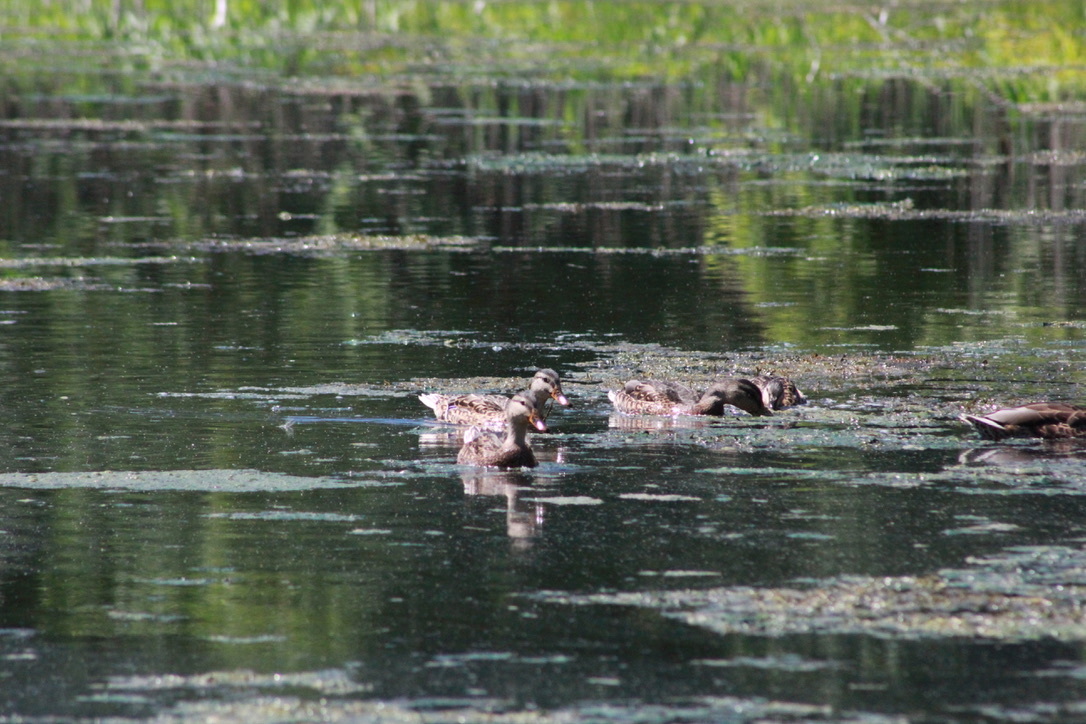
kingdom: Animalia
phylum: Chordata
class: Aves
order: Anseriformes
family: Anatidae
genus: Anas
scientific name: Anas platyrhynchos
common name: Mallard
